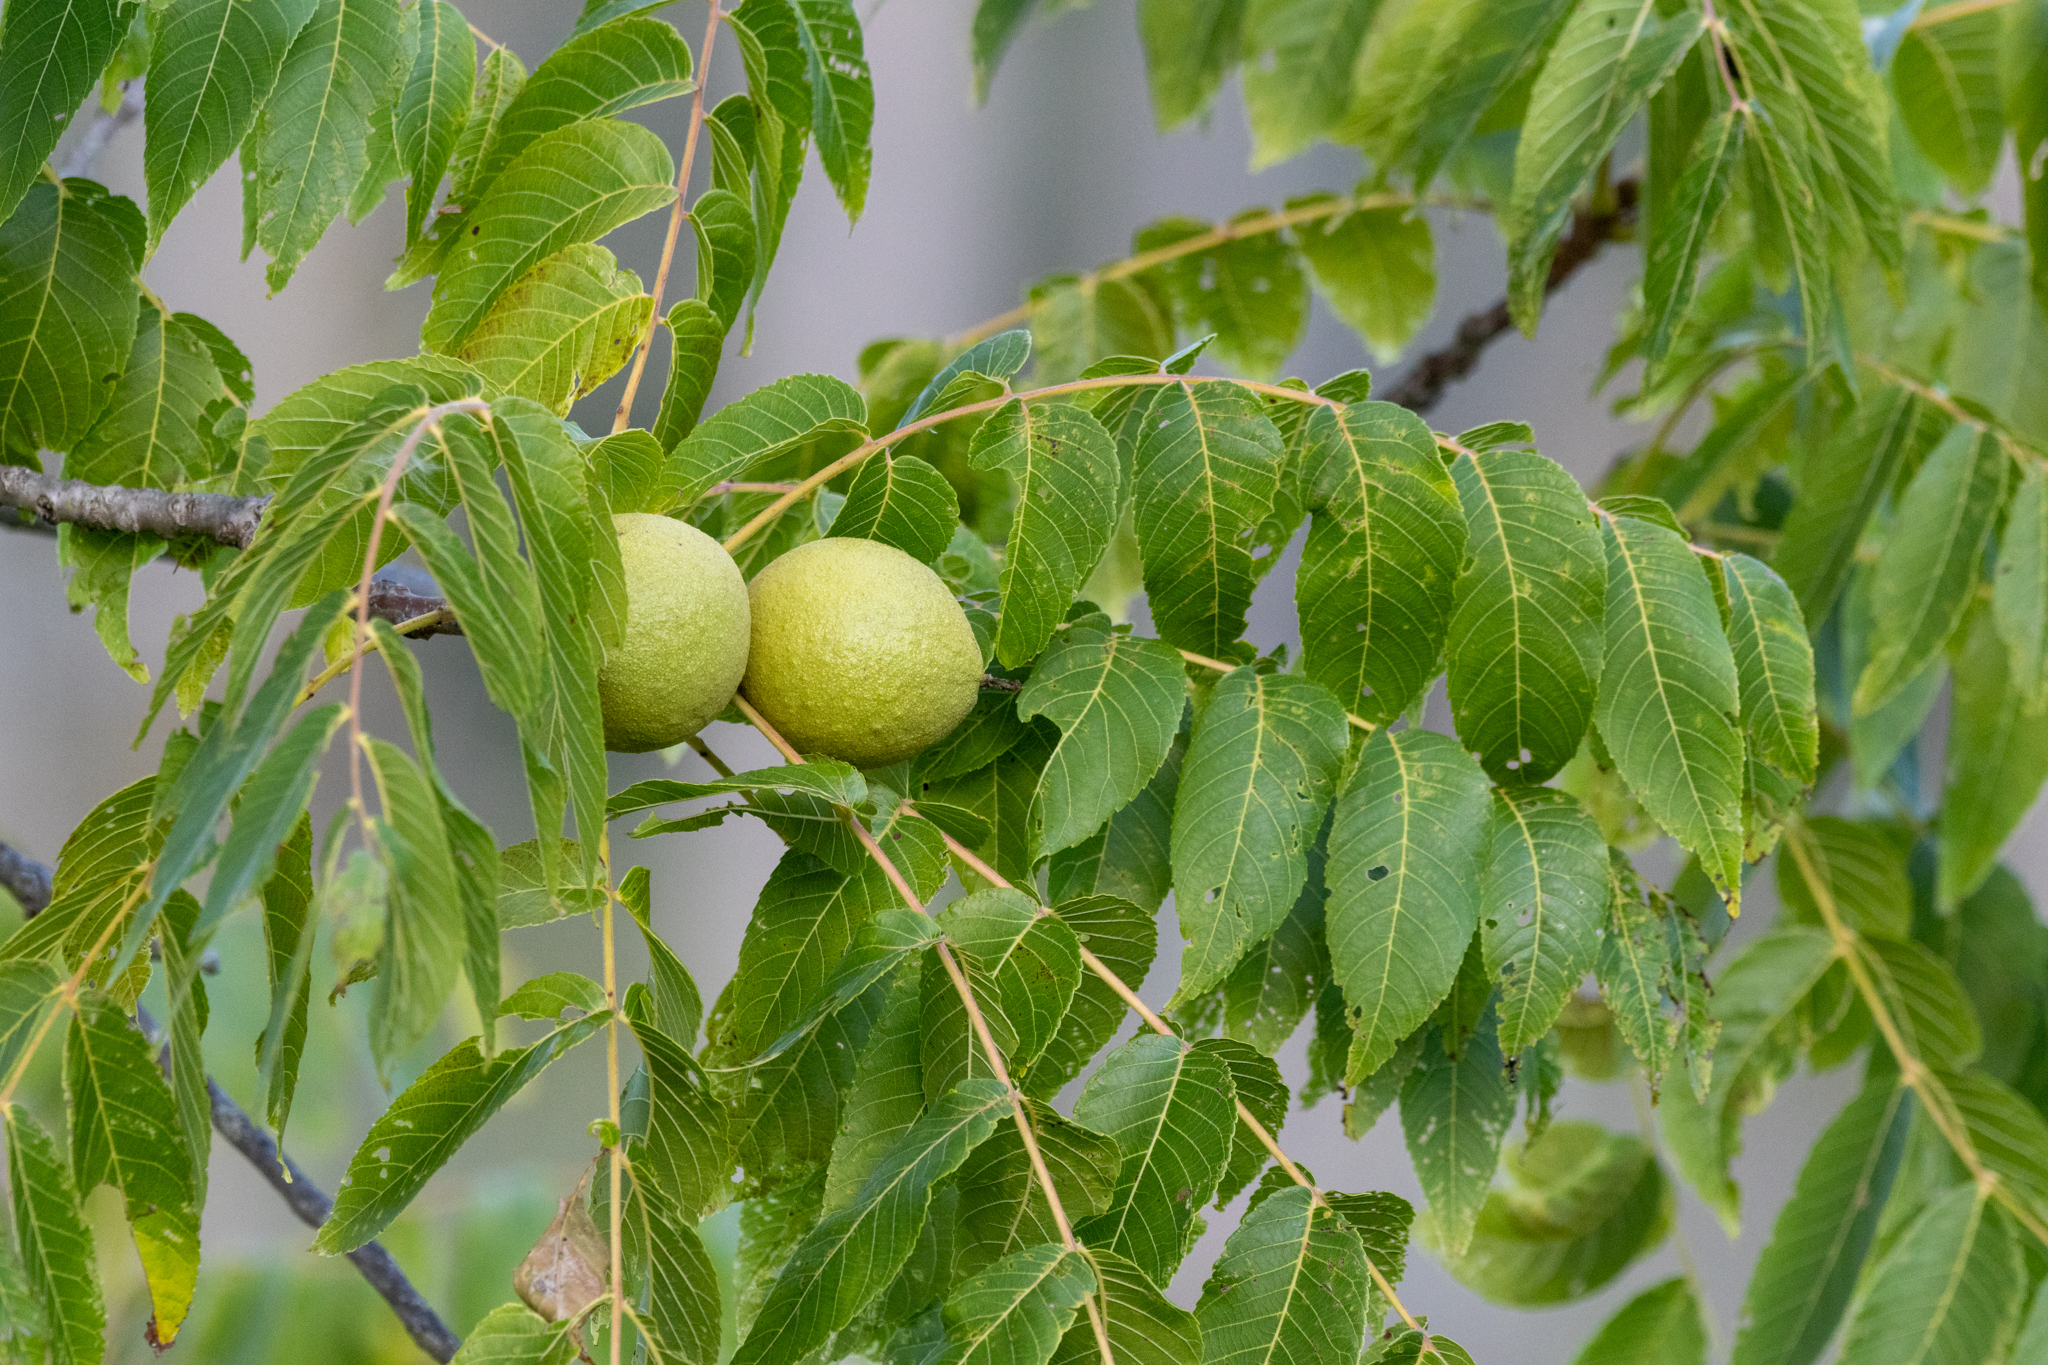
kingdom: Plantae
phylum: Tracheophyta
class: Magnoliopsida
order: Fagales
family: Juglandaceae
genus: Juglans
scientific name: Juglans nigra
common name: Black walnut
